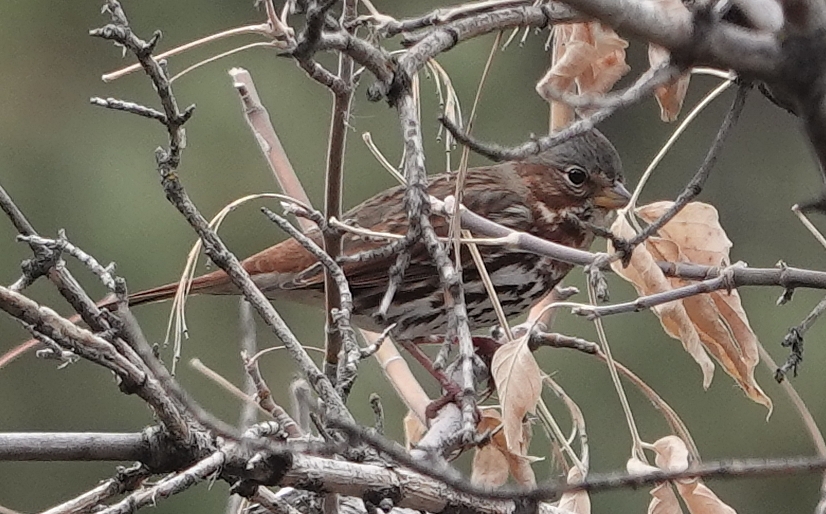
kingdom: Animalia
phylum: Chordata
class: Aves
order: Passeriformes
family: Passerellidae
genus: Passerella
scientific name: Passerella iliaca
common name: Fox sparrow
